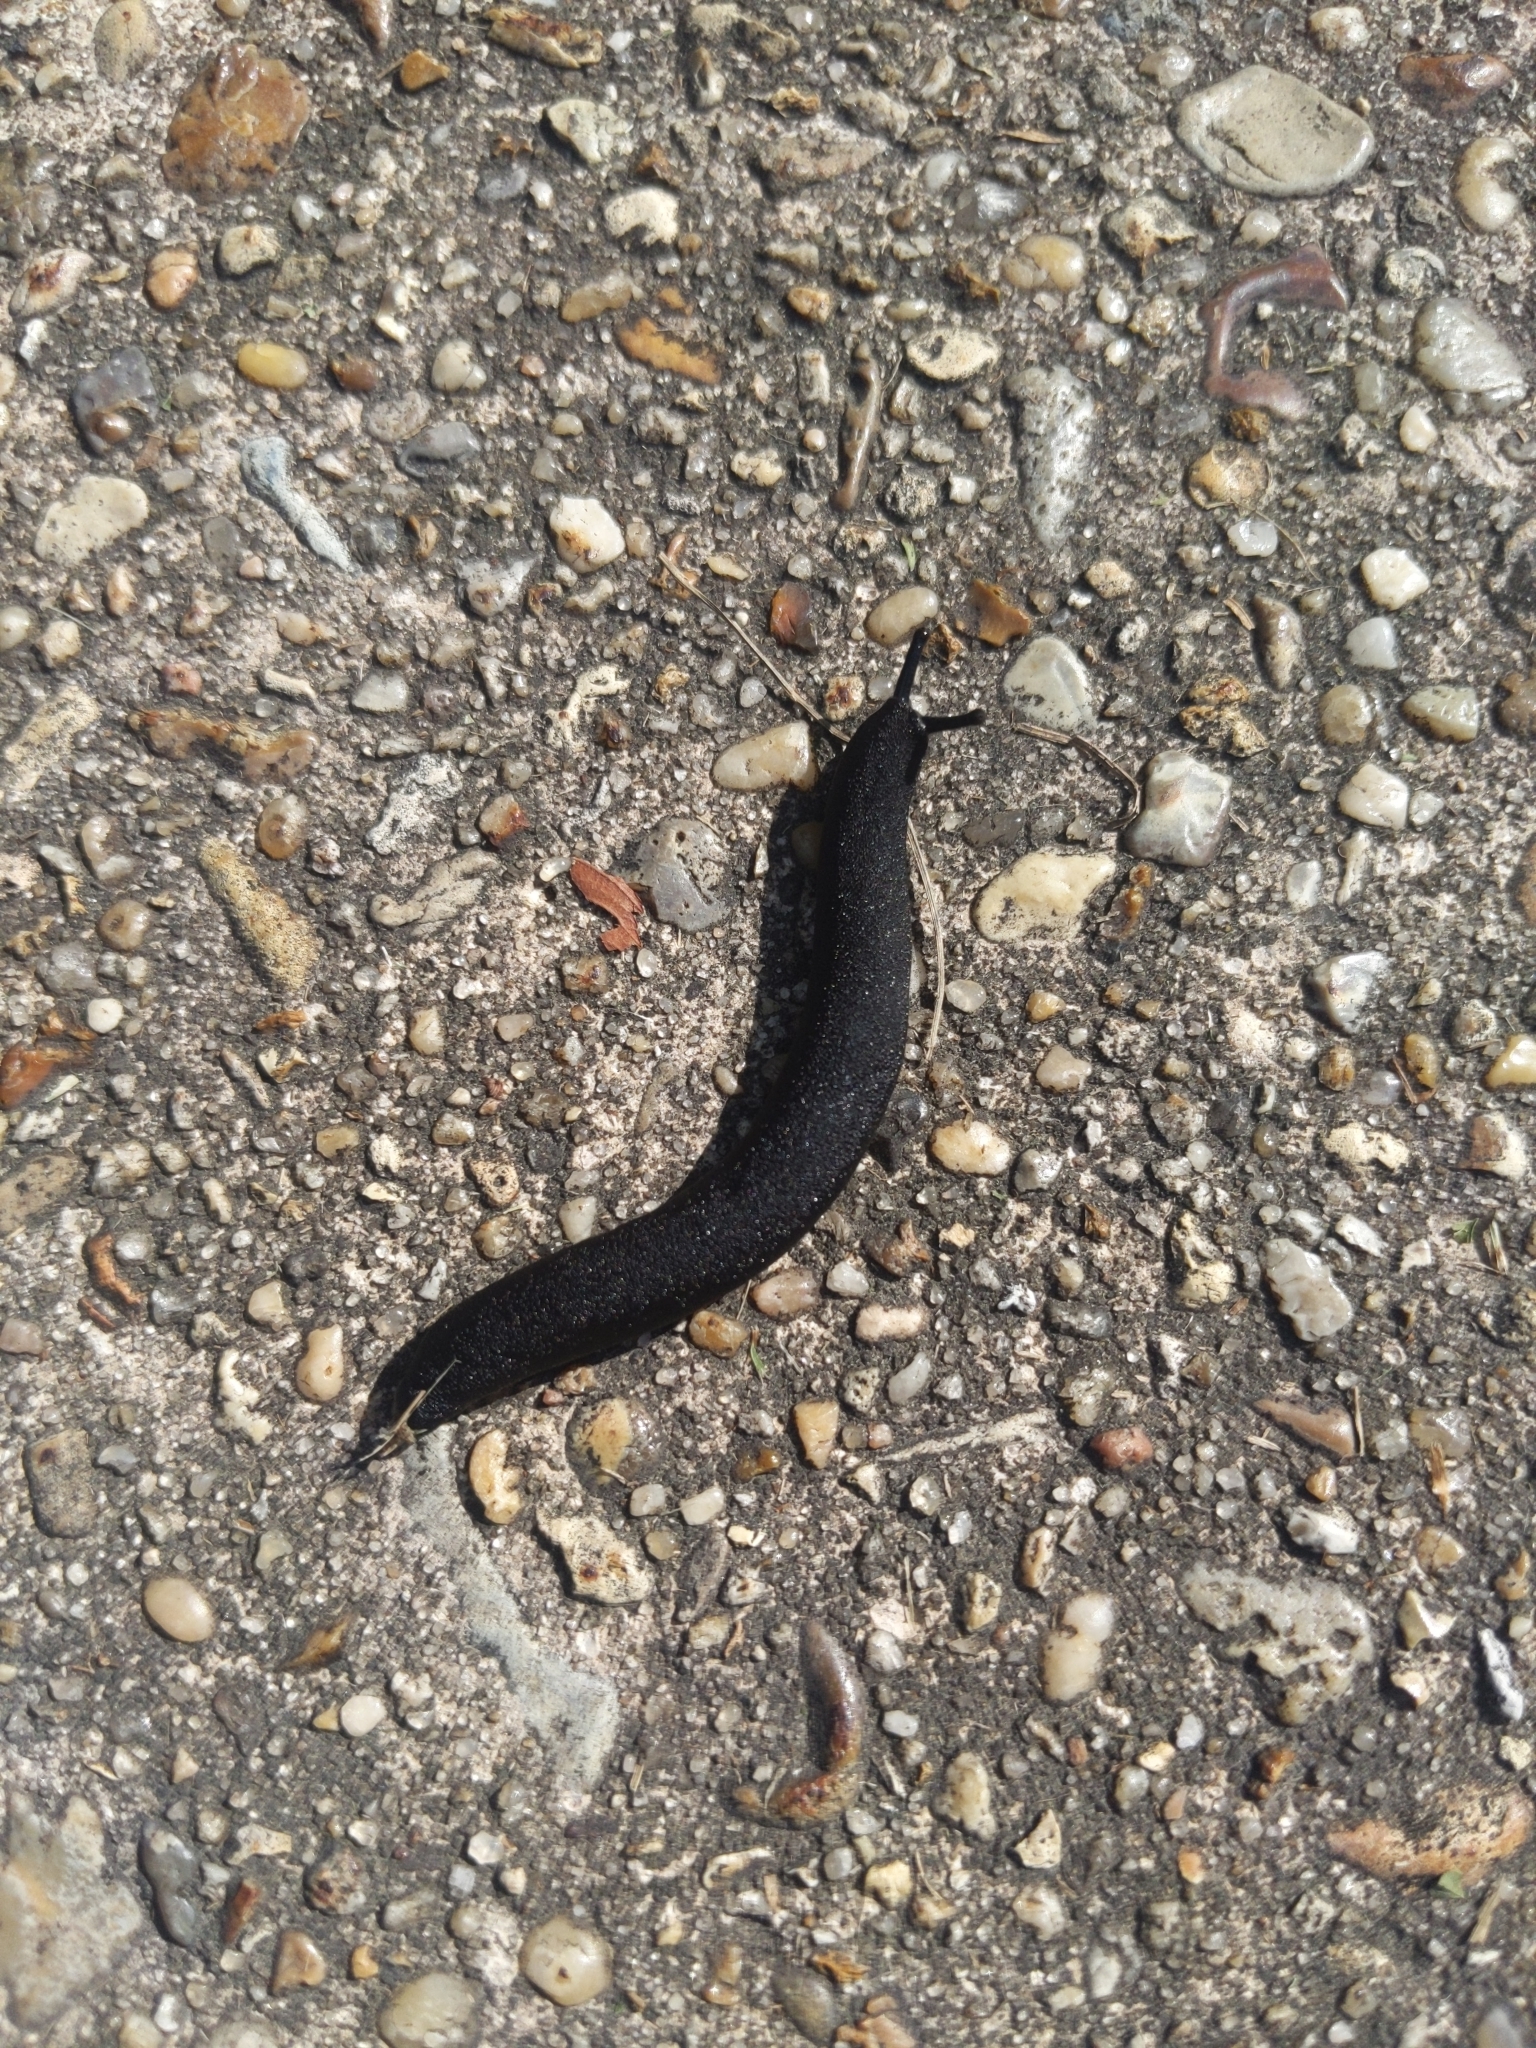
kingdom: Animalia
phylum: Mollusca
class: Gastropoda
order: Systellommatophora
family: Veronicellidae
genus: Belocaulus
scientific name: Belocaulus angustipes
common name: Black velvet leatherleaf slug
